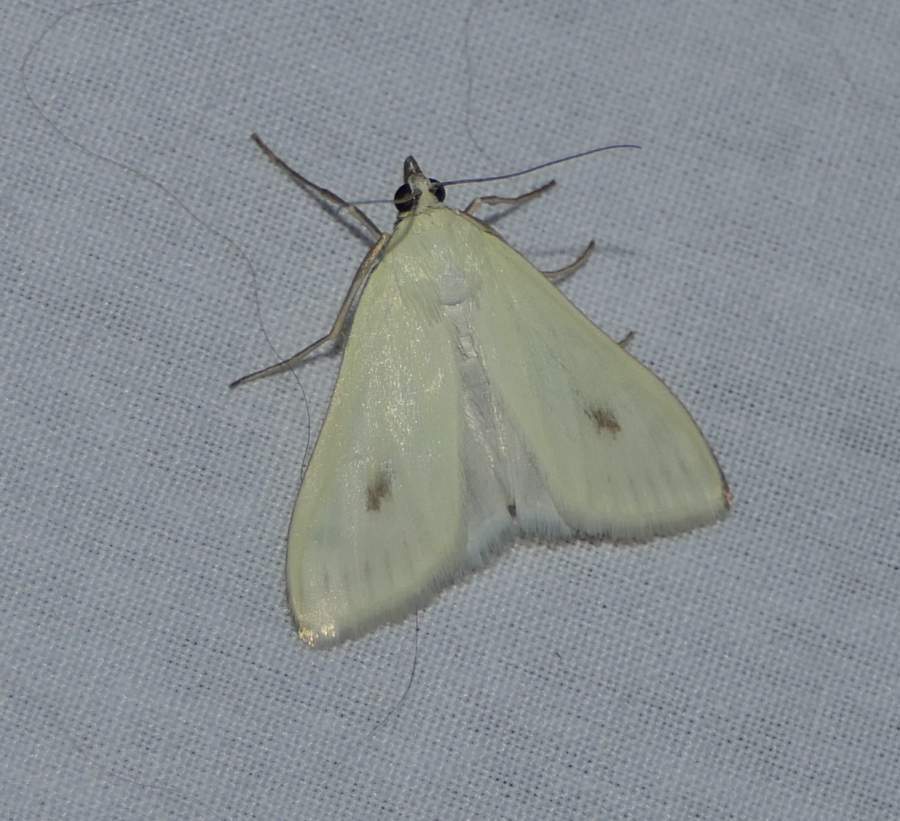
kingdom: Animalia
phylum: Arthropoda
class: Insecta
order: Lepidoptera
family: Crambidae
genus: Sitochroa
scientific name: Sitochroa palealis
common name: Greenish-yellow sitochroa moth
